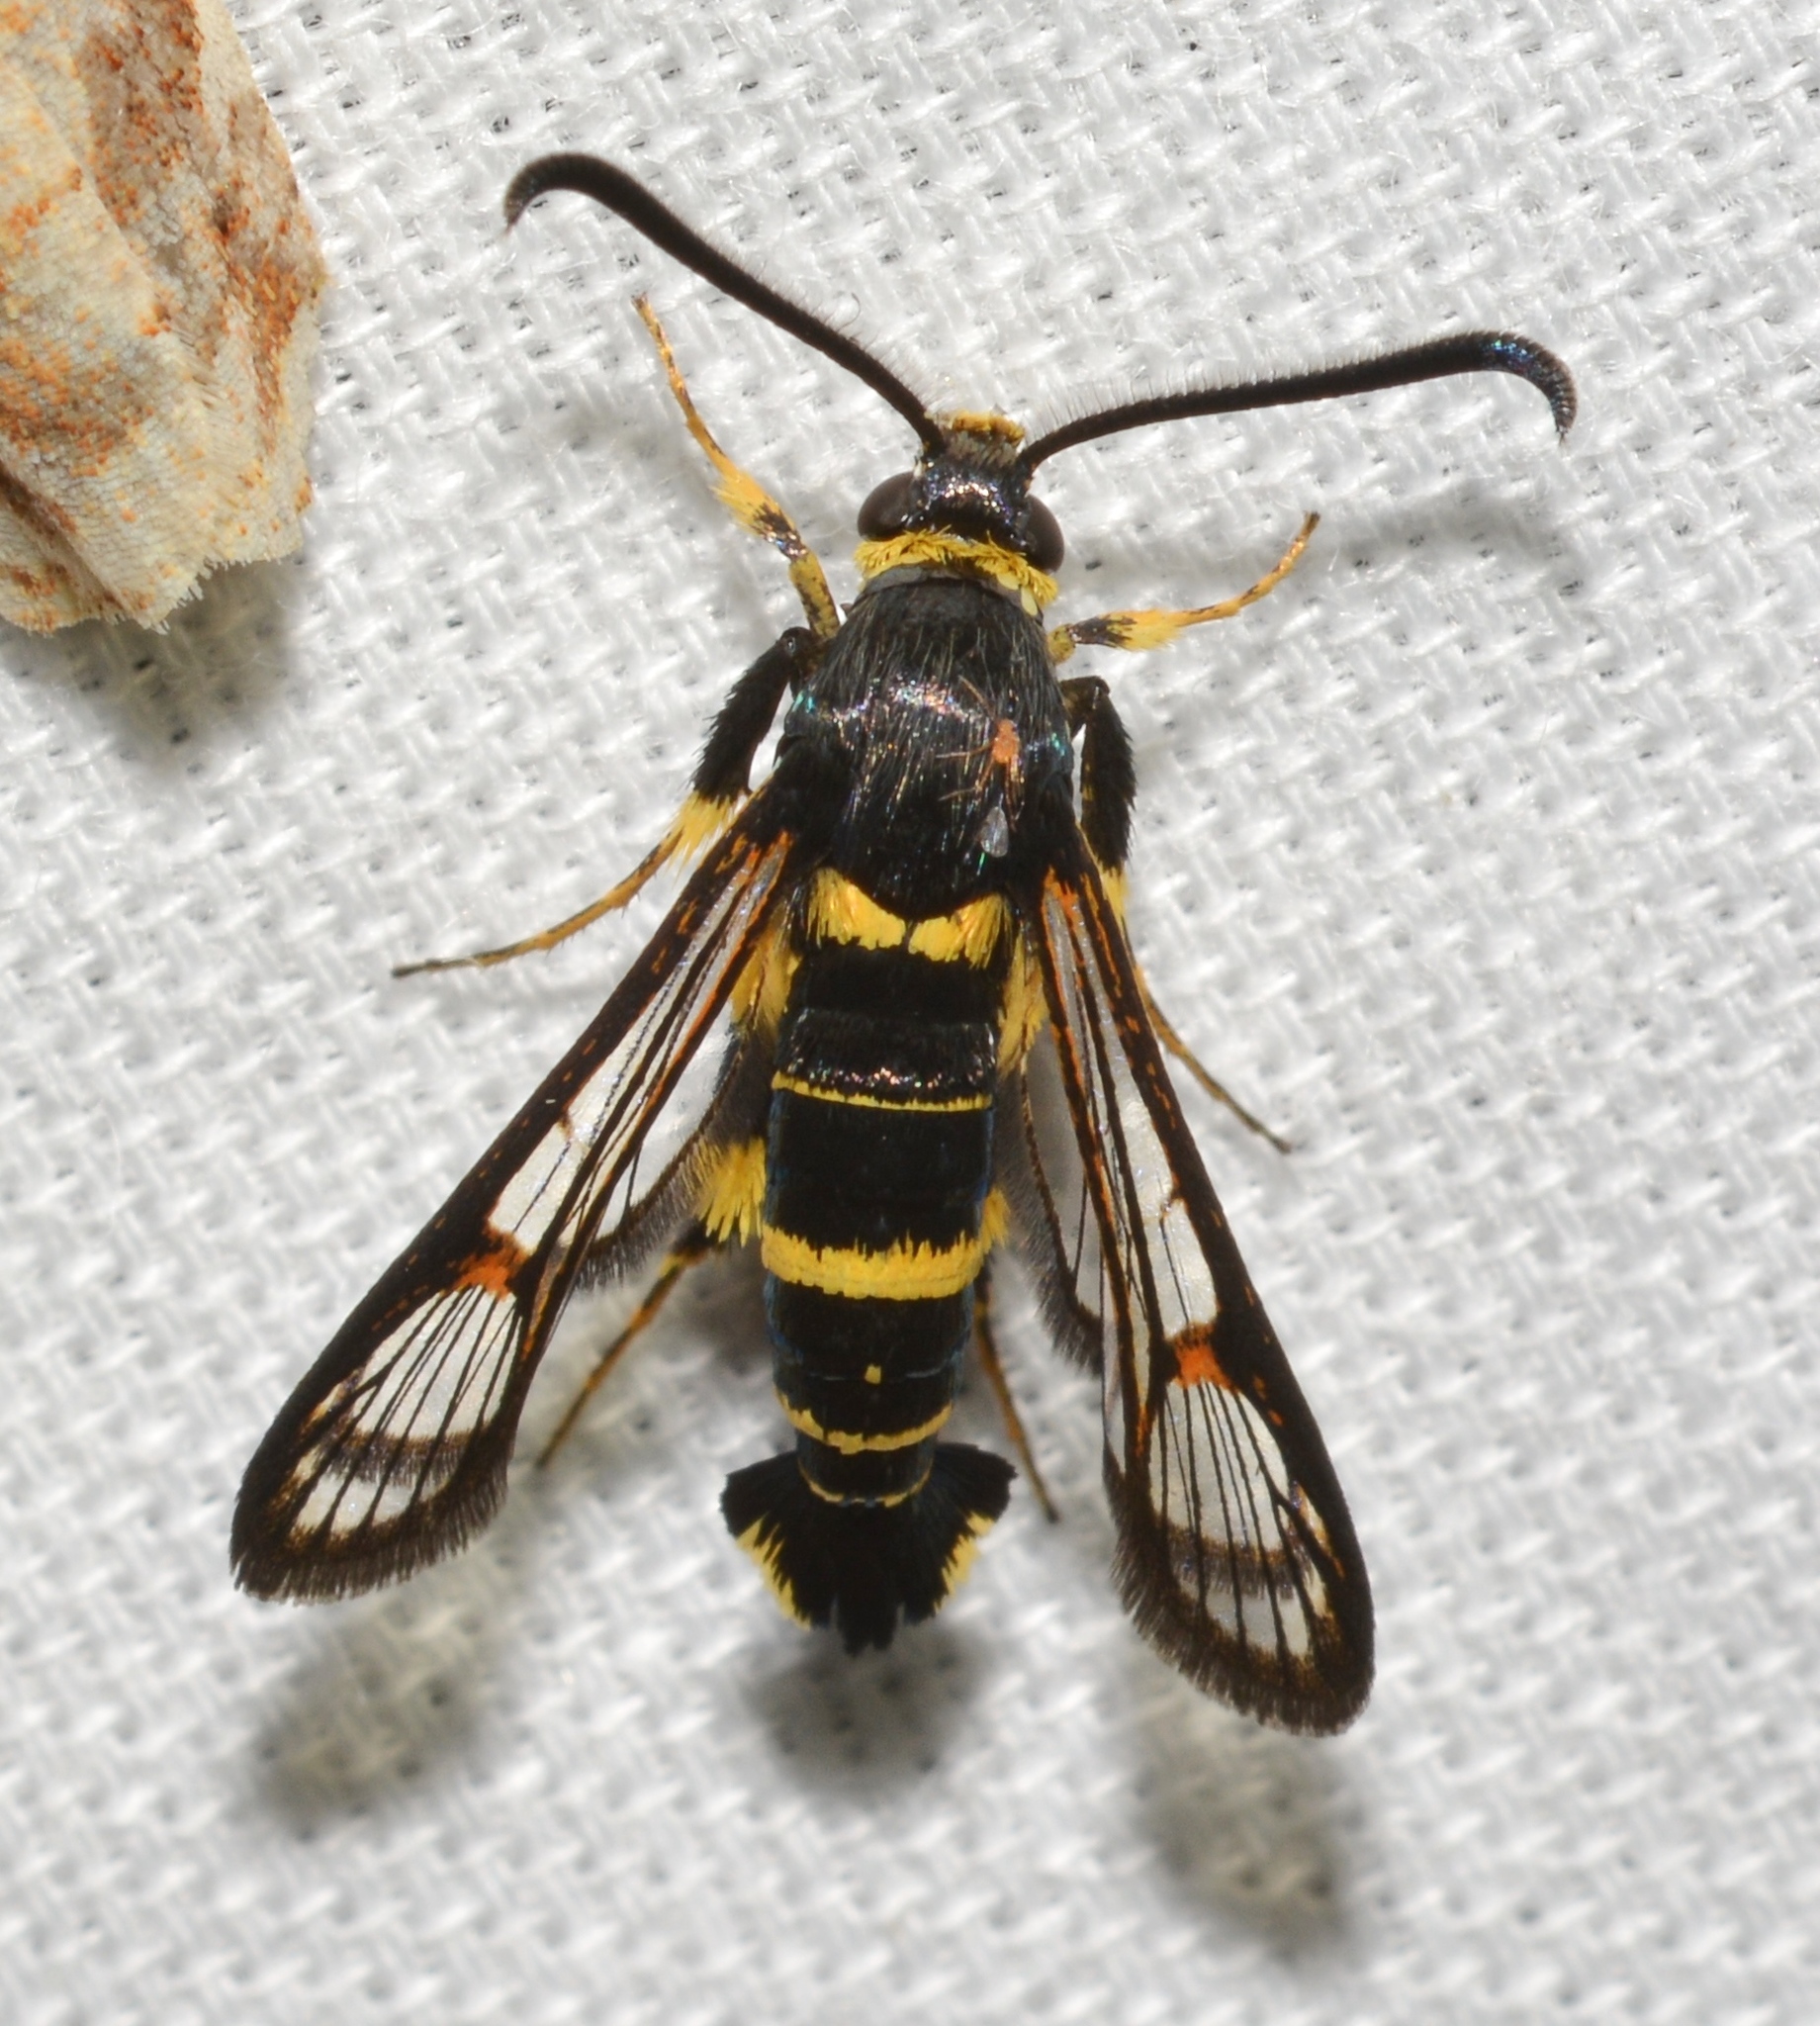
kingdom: Animalia
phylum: Arthropoda
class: Insecta
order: Lepidoptera
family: Sesiidae
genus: Synanthedon
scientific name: Synanthedon decipiens
